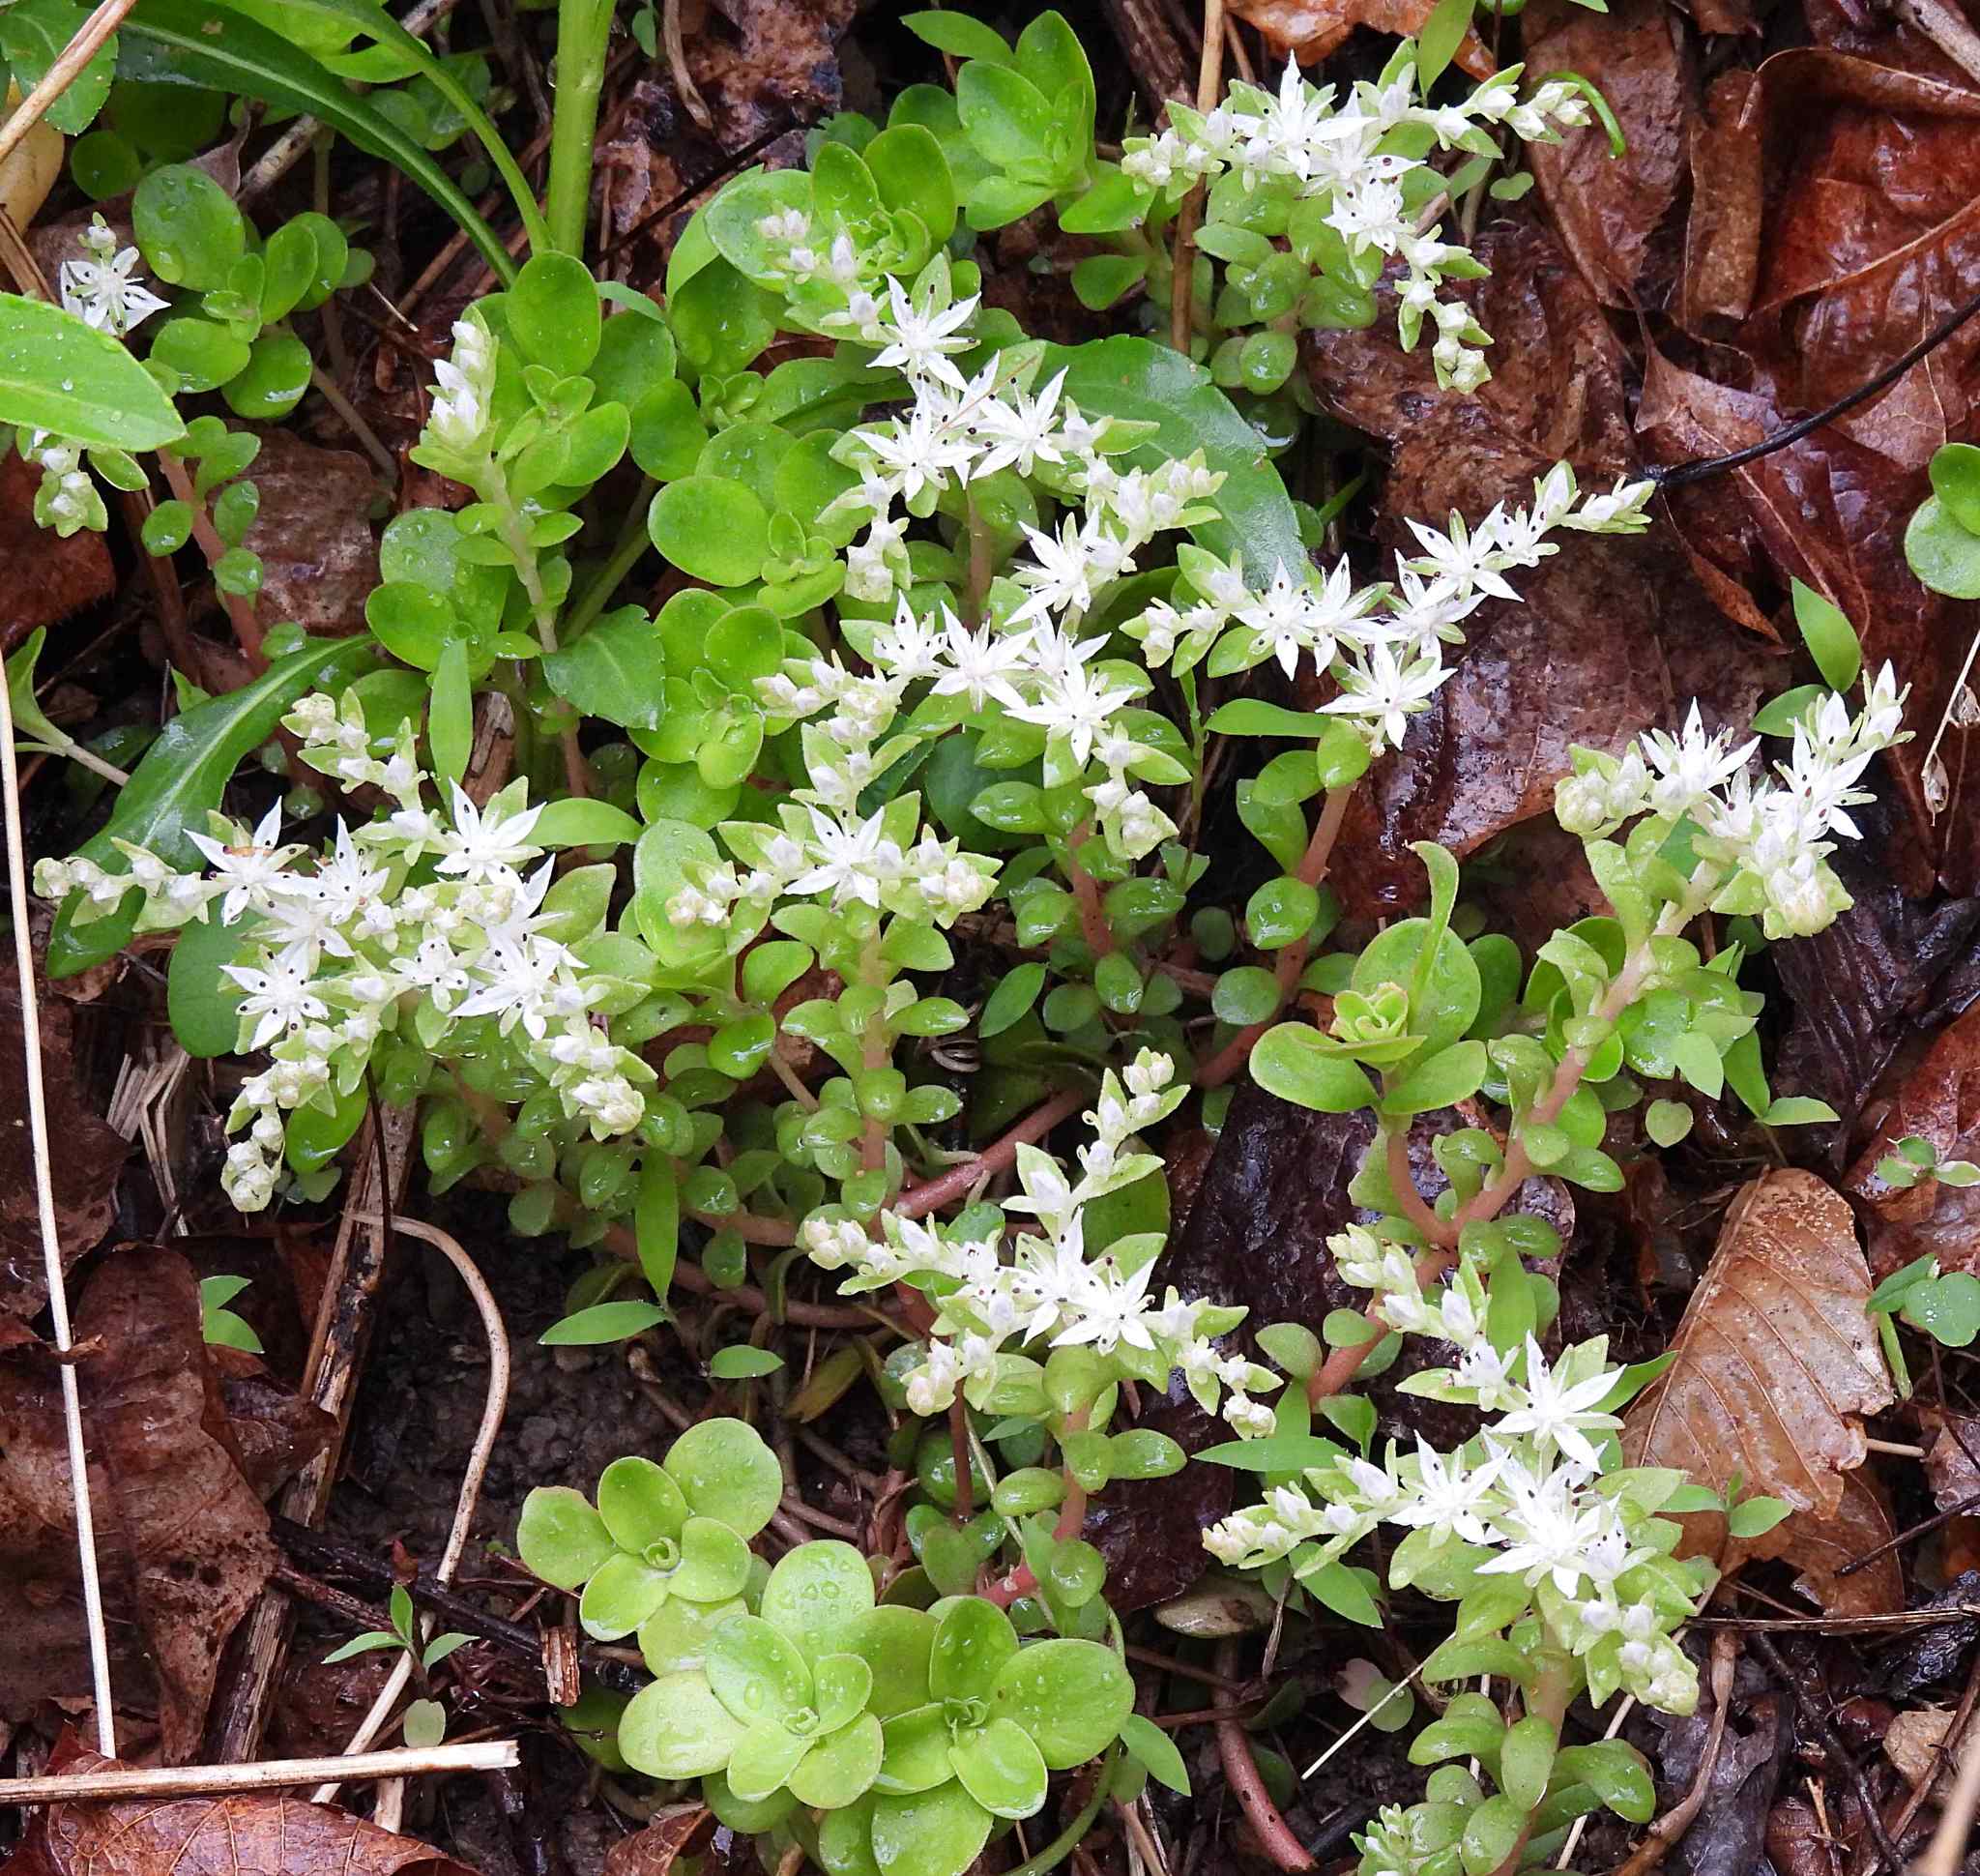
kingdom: Plantae
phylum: Tracheophyta
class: Magnoliopsida
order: Saxifragales
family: Crassulaceae
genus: Sedum
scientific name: Sedum ternatum
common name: Wild stonecrop
